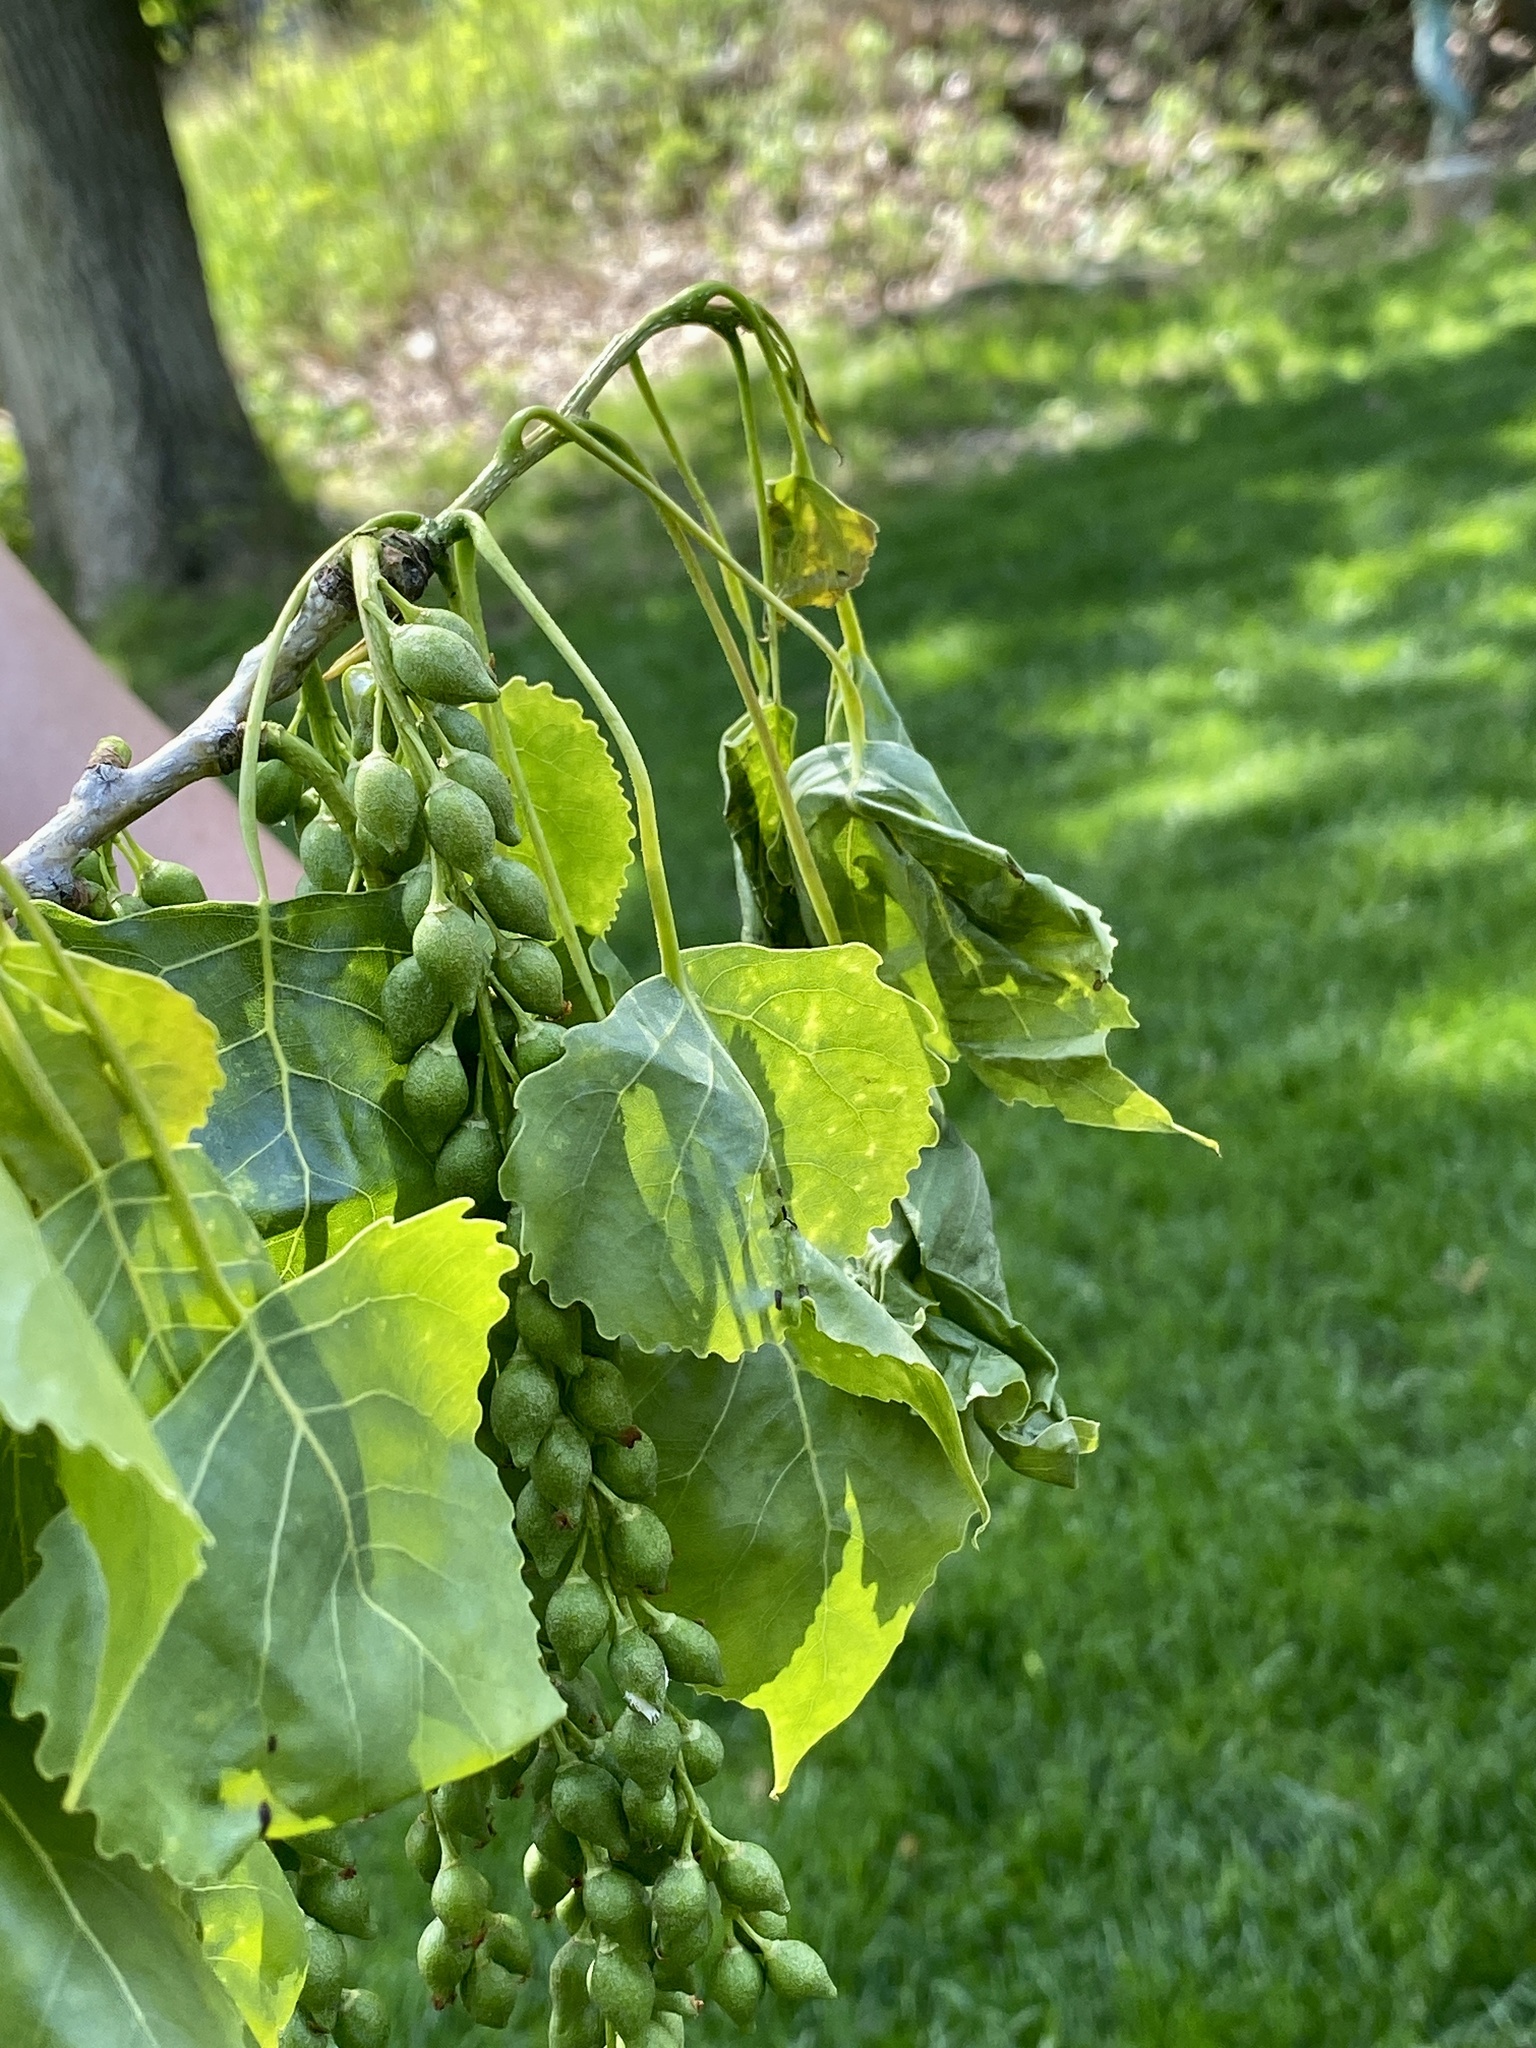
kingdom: Plantae
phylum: Tracheophyta
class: Magnoliopsida
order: Malpighiales
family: Salicaceae
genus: Populus
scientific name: Populus deltoides
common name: Eastern cottonwood
